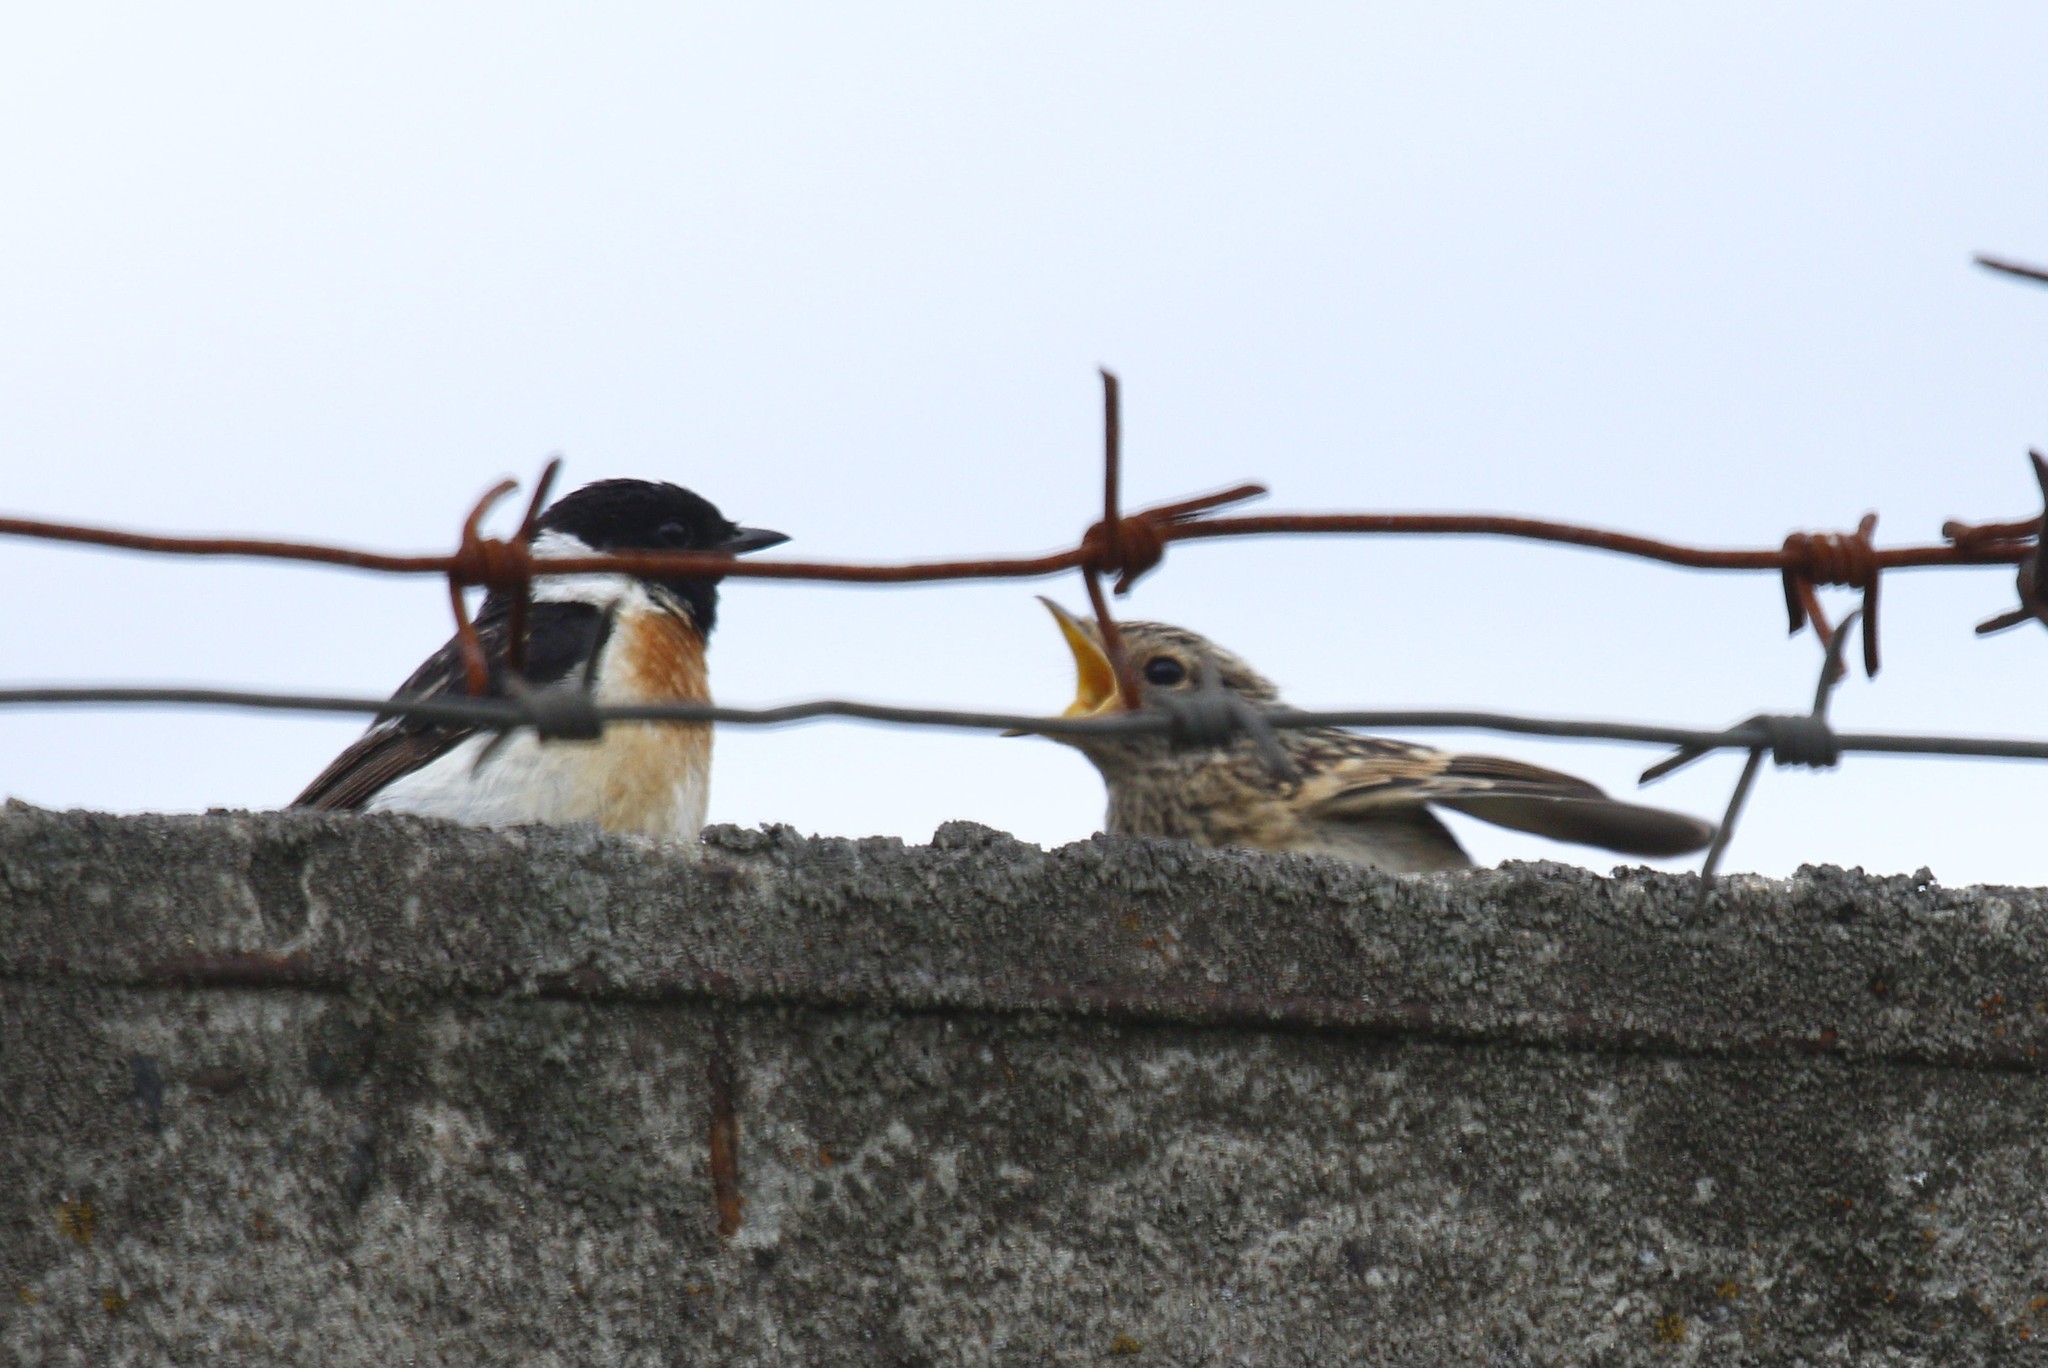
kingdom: Animalia
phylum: Chordata
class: Aves
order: Passeriformes
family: Muscicapidae
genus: Saxicola
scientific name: Saxicola maurus
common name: Siberian stonechat
